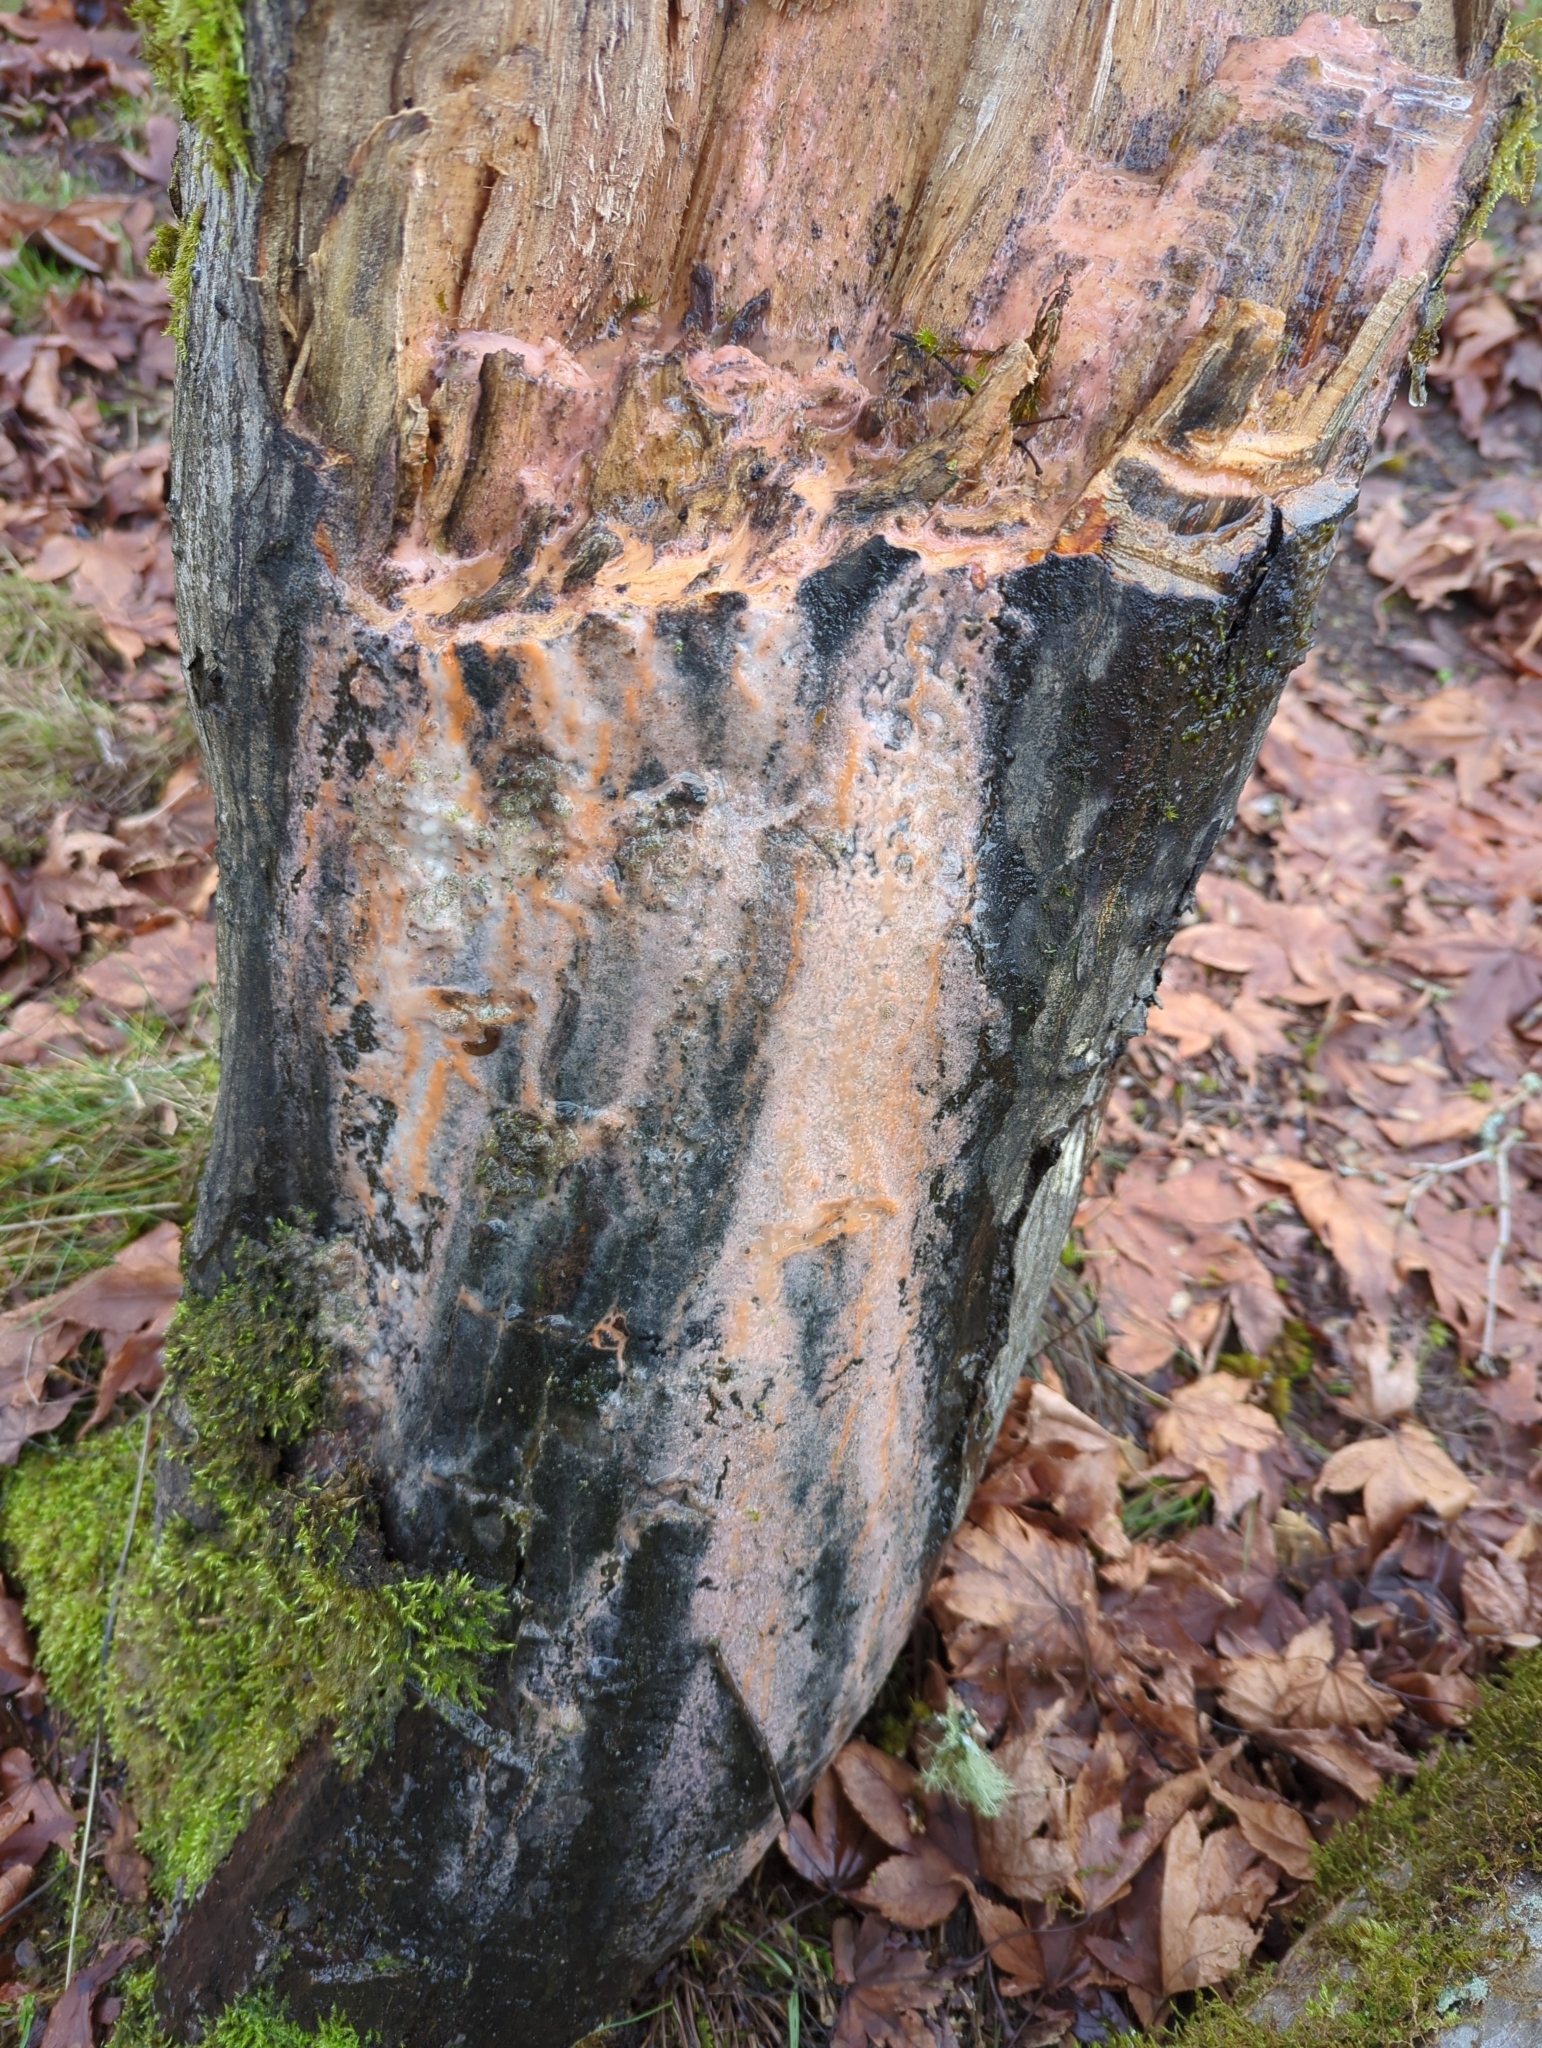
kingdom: Fungi
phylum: Basidiomycota
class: Tremellomycetes
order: Cystofilobasidiales
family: Cystofilobasidiaceae
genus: Cystofilobasidium
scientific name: Cystofilobasidium macerans
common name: Sap yeast
